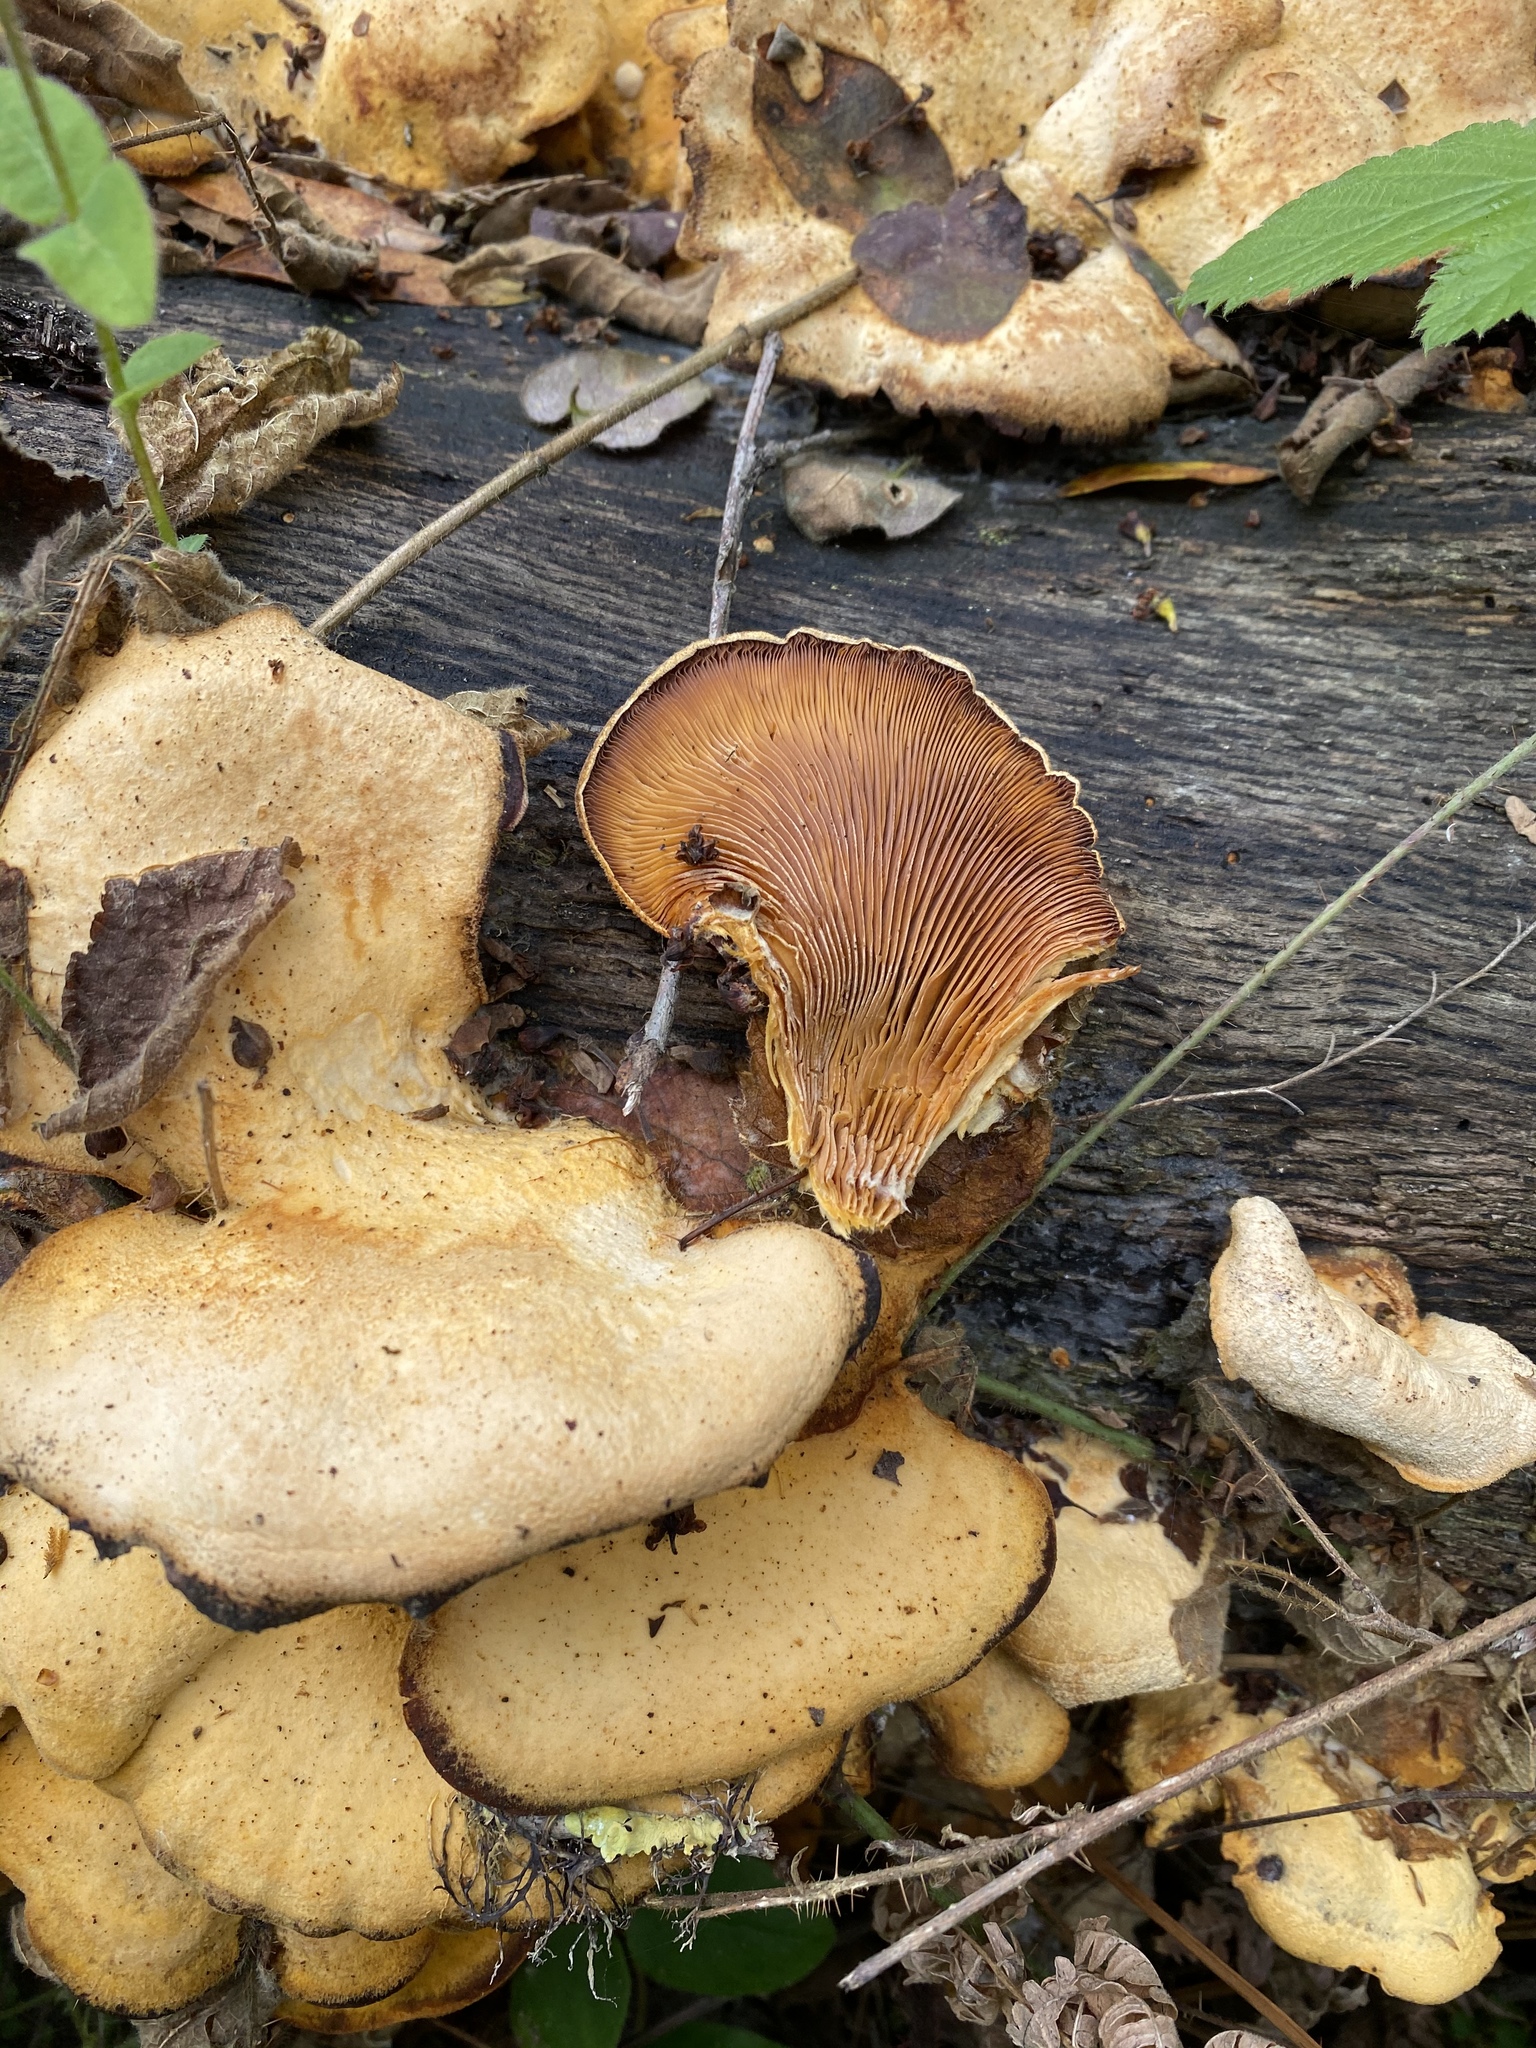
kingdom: Fungi
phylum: Basidiomycota
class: Agaricomycetes
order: Agaricales
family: Phyllotopsidaceae
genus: Phyllotopsis
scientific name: Phyllotopsis nidulans
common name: Orange mock oyster
